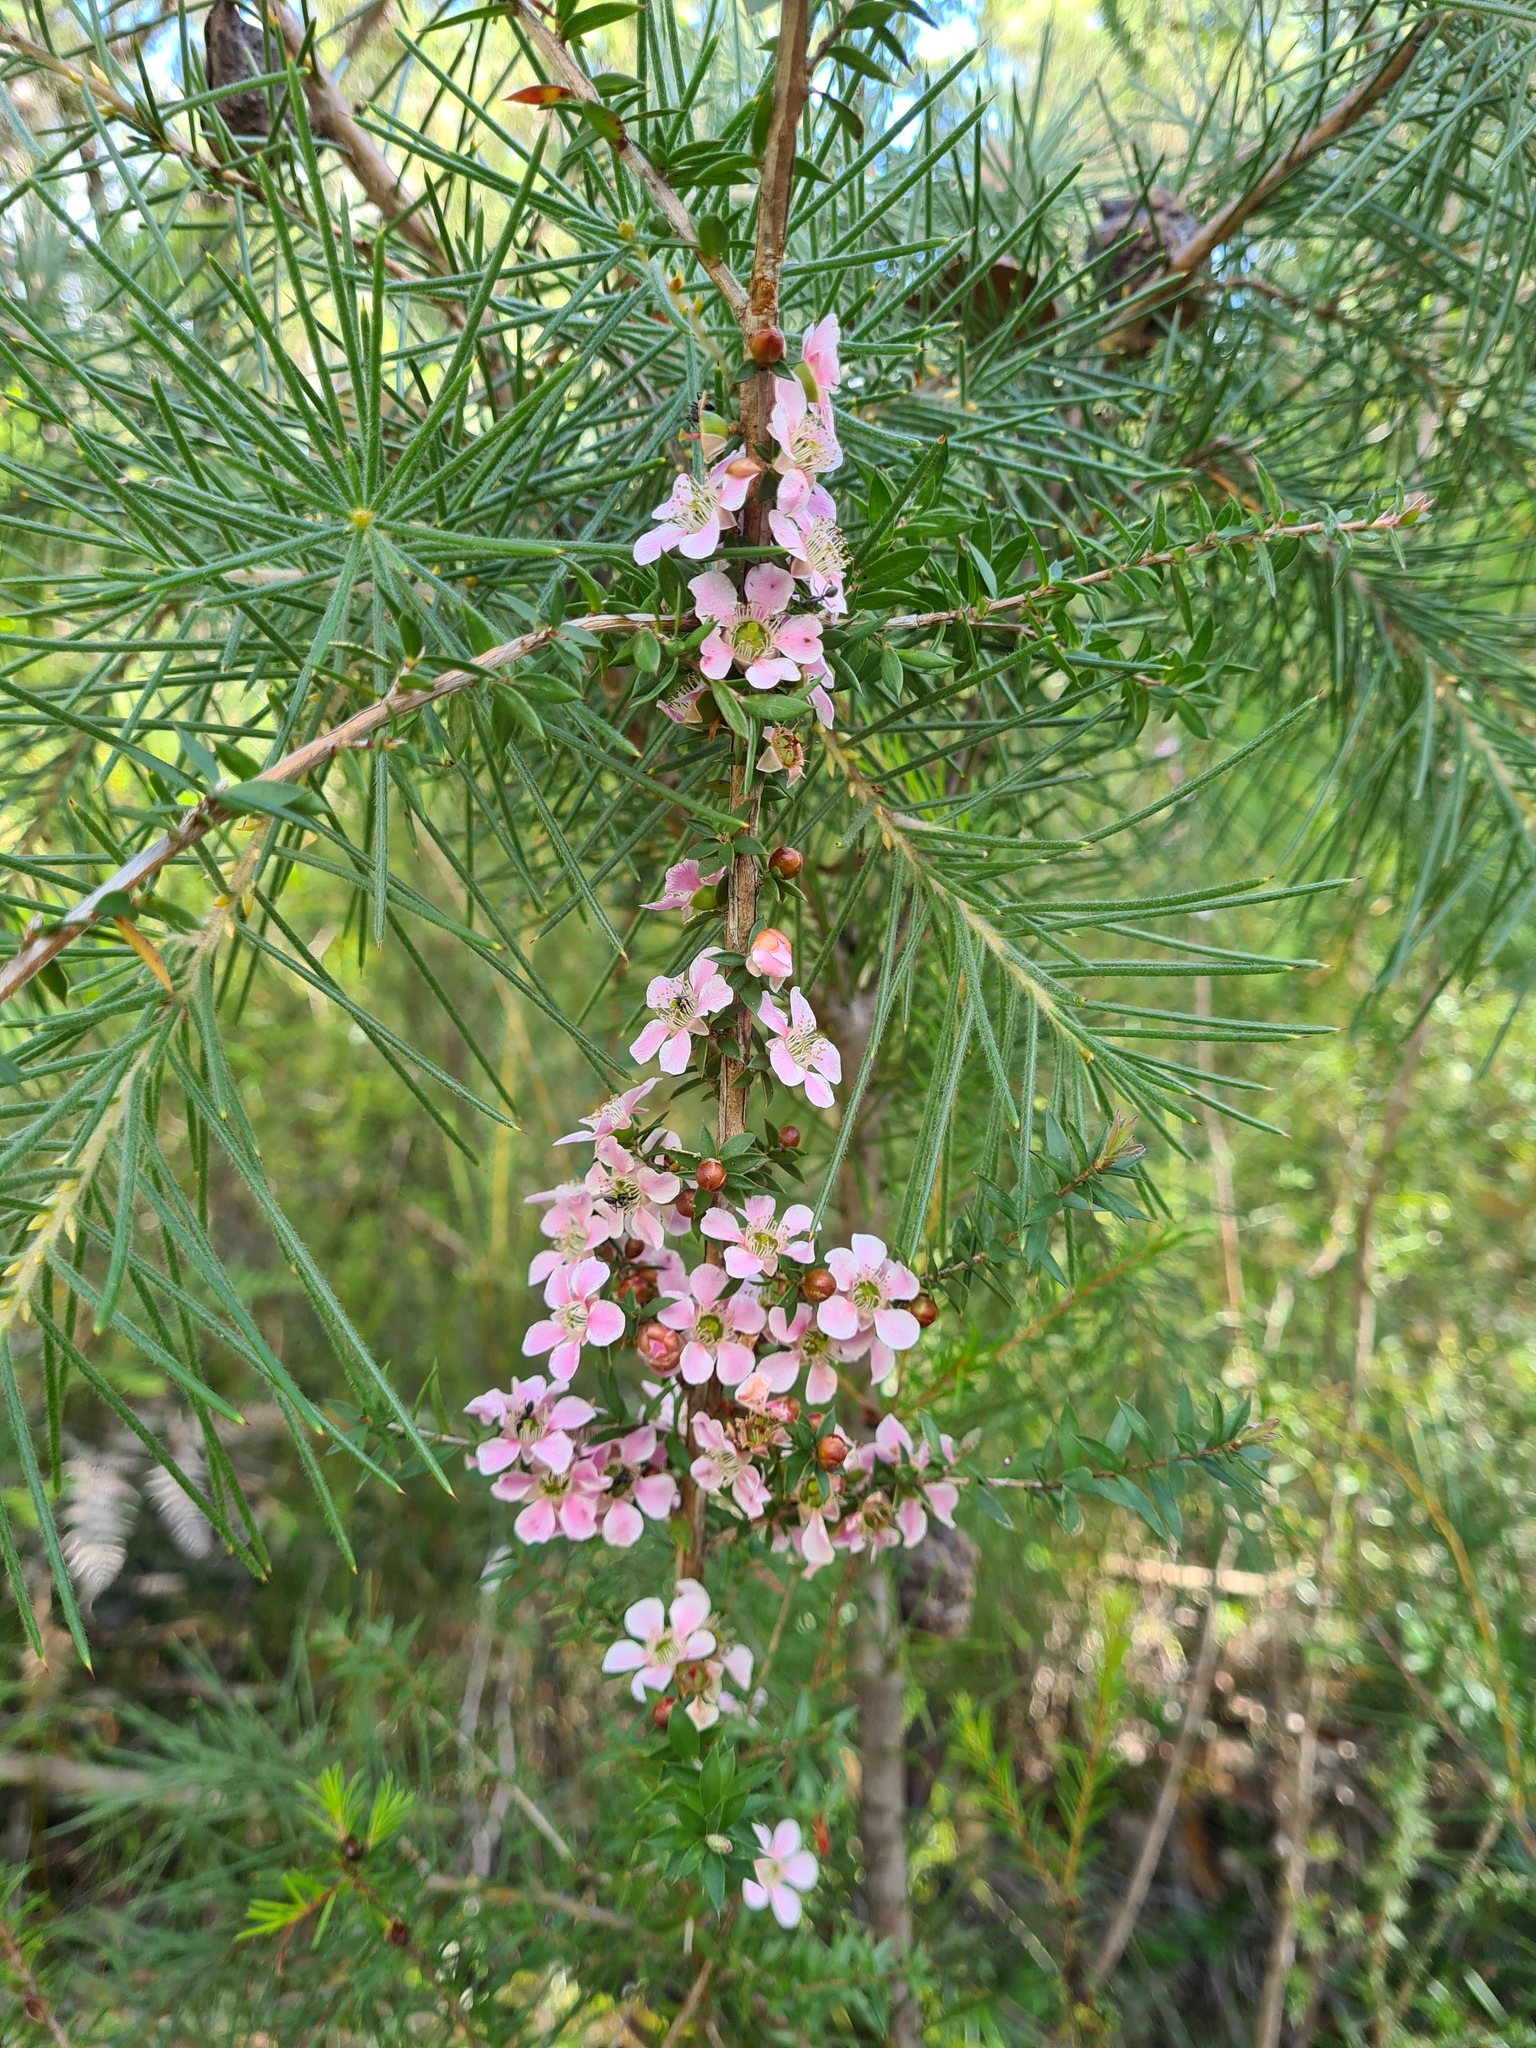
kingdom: Plantae
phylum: Tracheophyta
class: Magnoliopsida
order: Myrtales
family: Myrtaceae
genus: Leptospermum
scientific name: Leptospermum squarrosum
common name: Peach-blossom teatree
